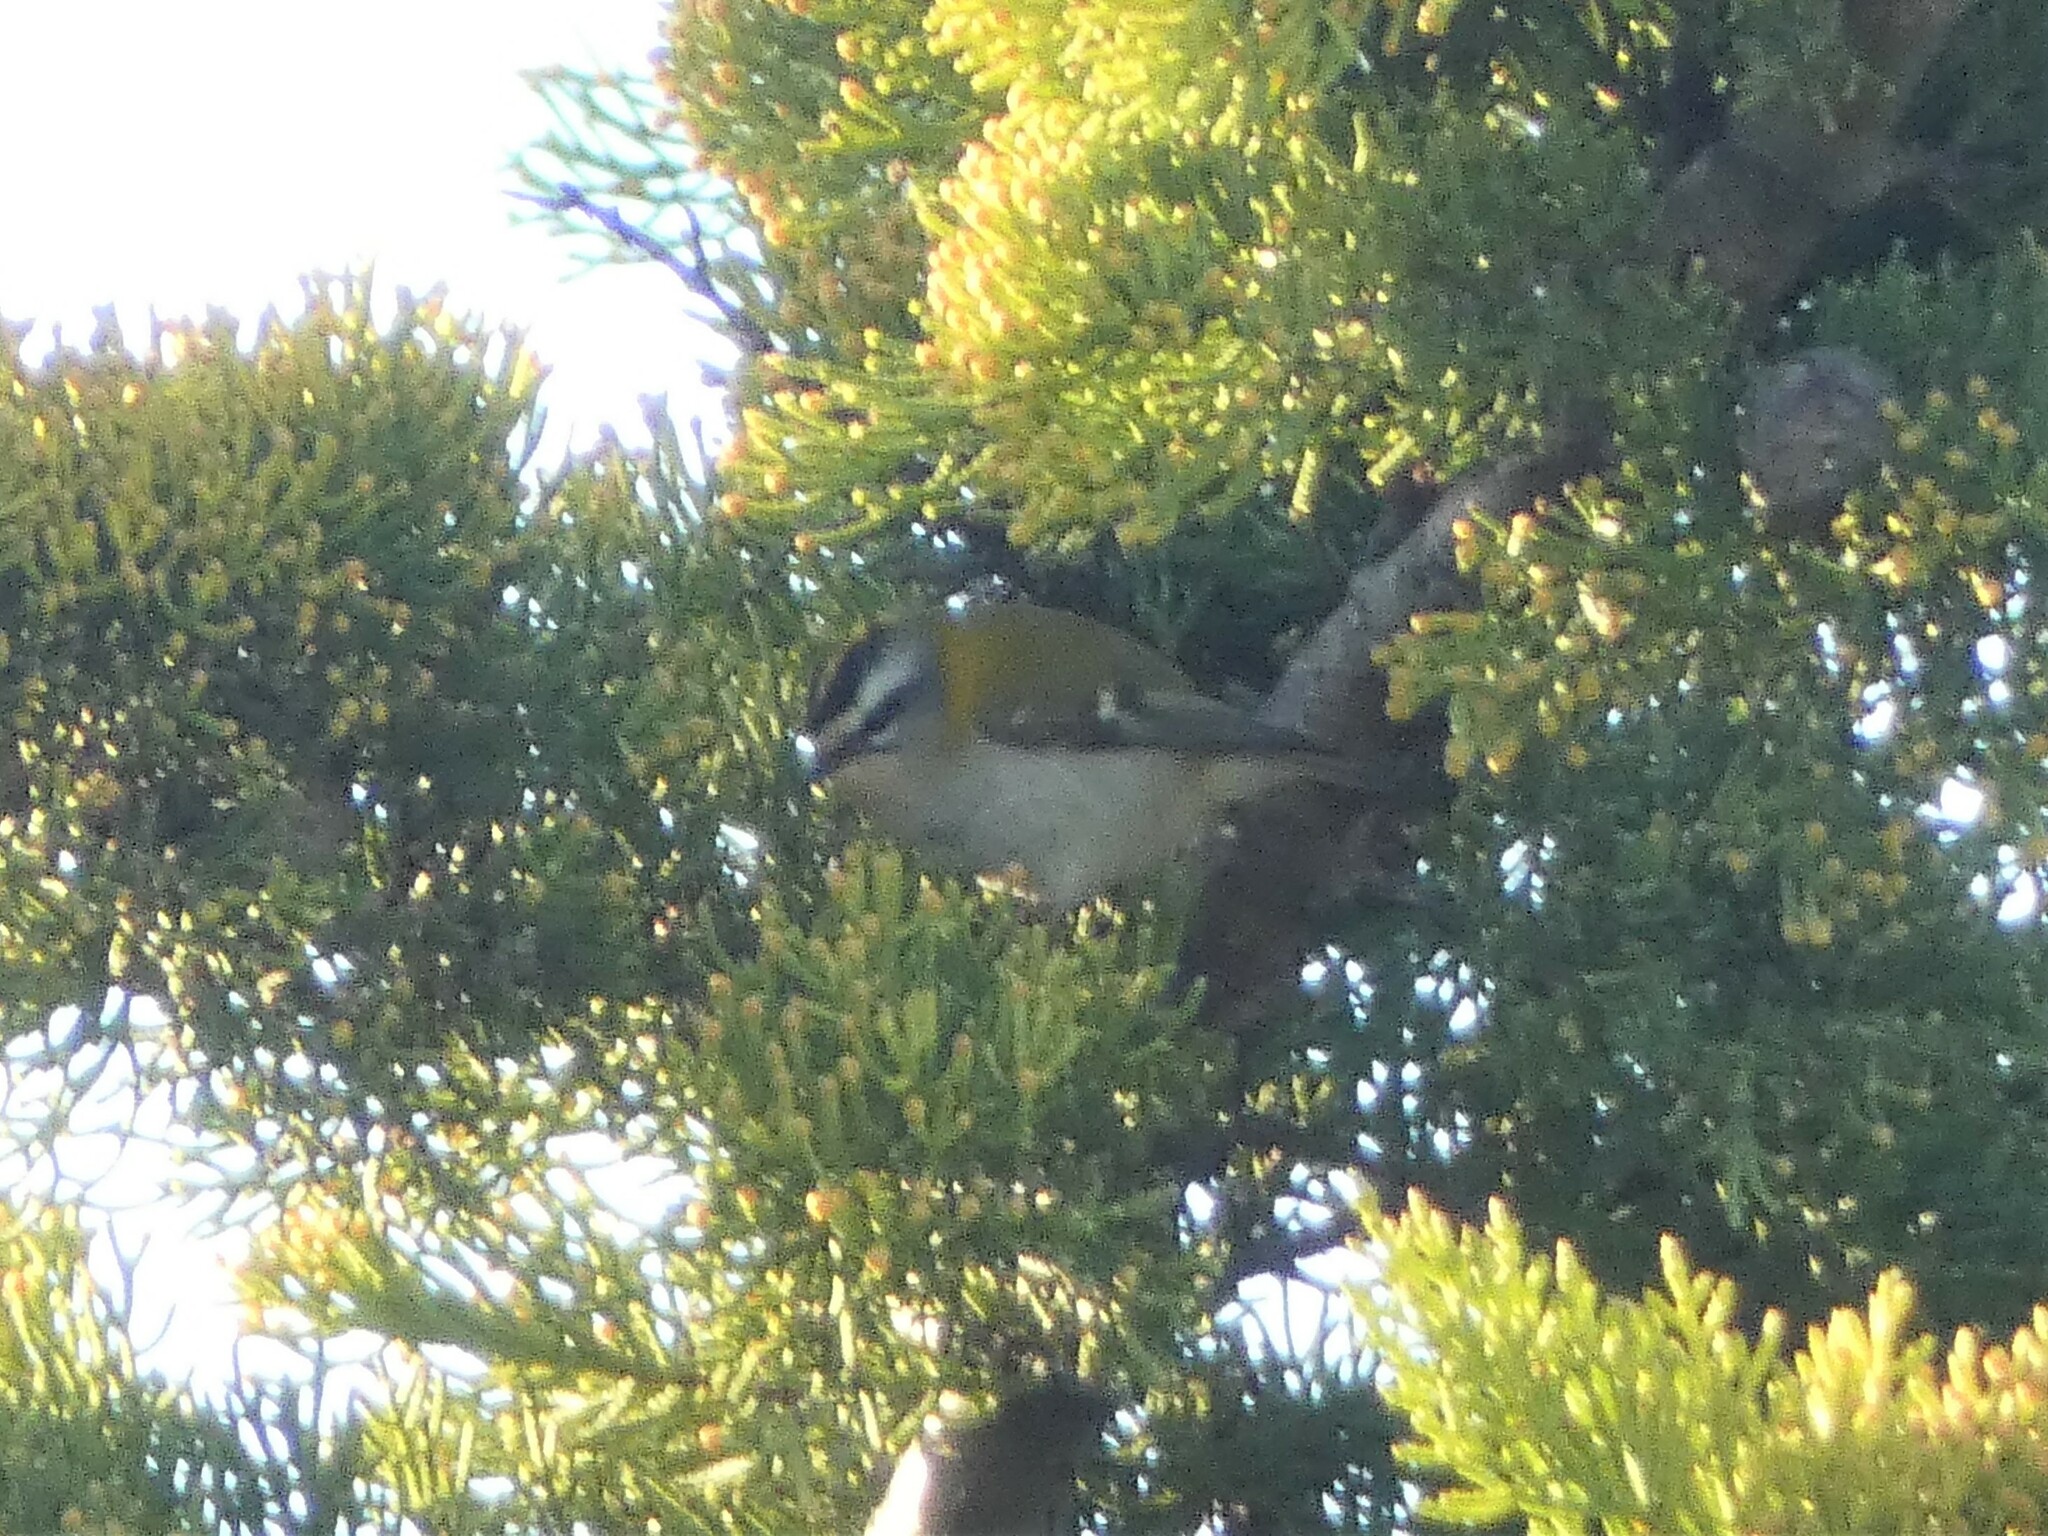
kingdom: Animalia
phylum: Chordata
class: Aves
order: Passeriformes
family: Regulidae
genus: Regulus
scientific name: Regulus ignicapilla
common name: Firecrest
